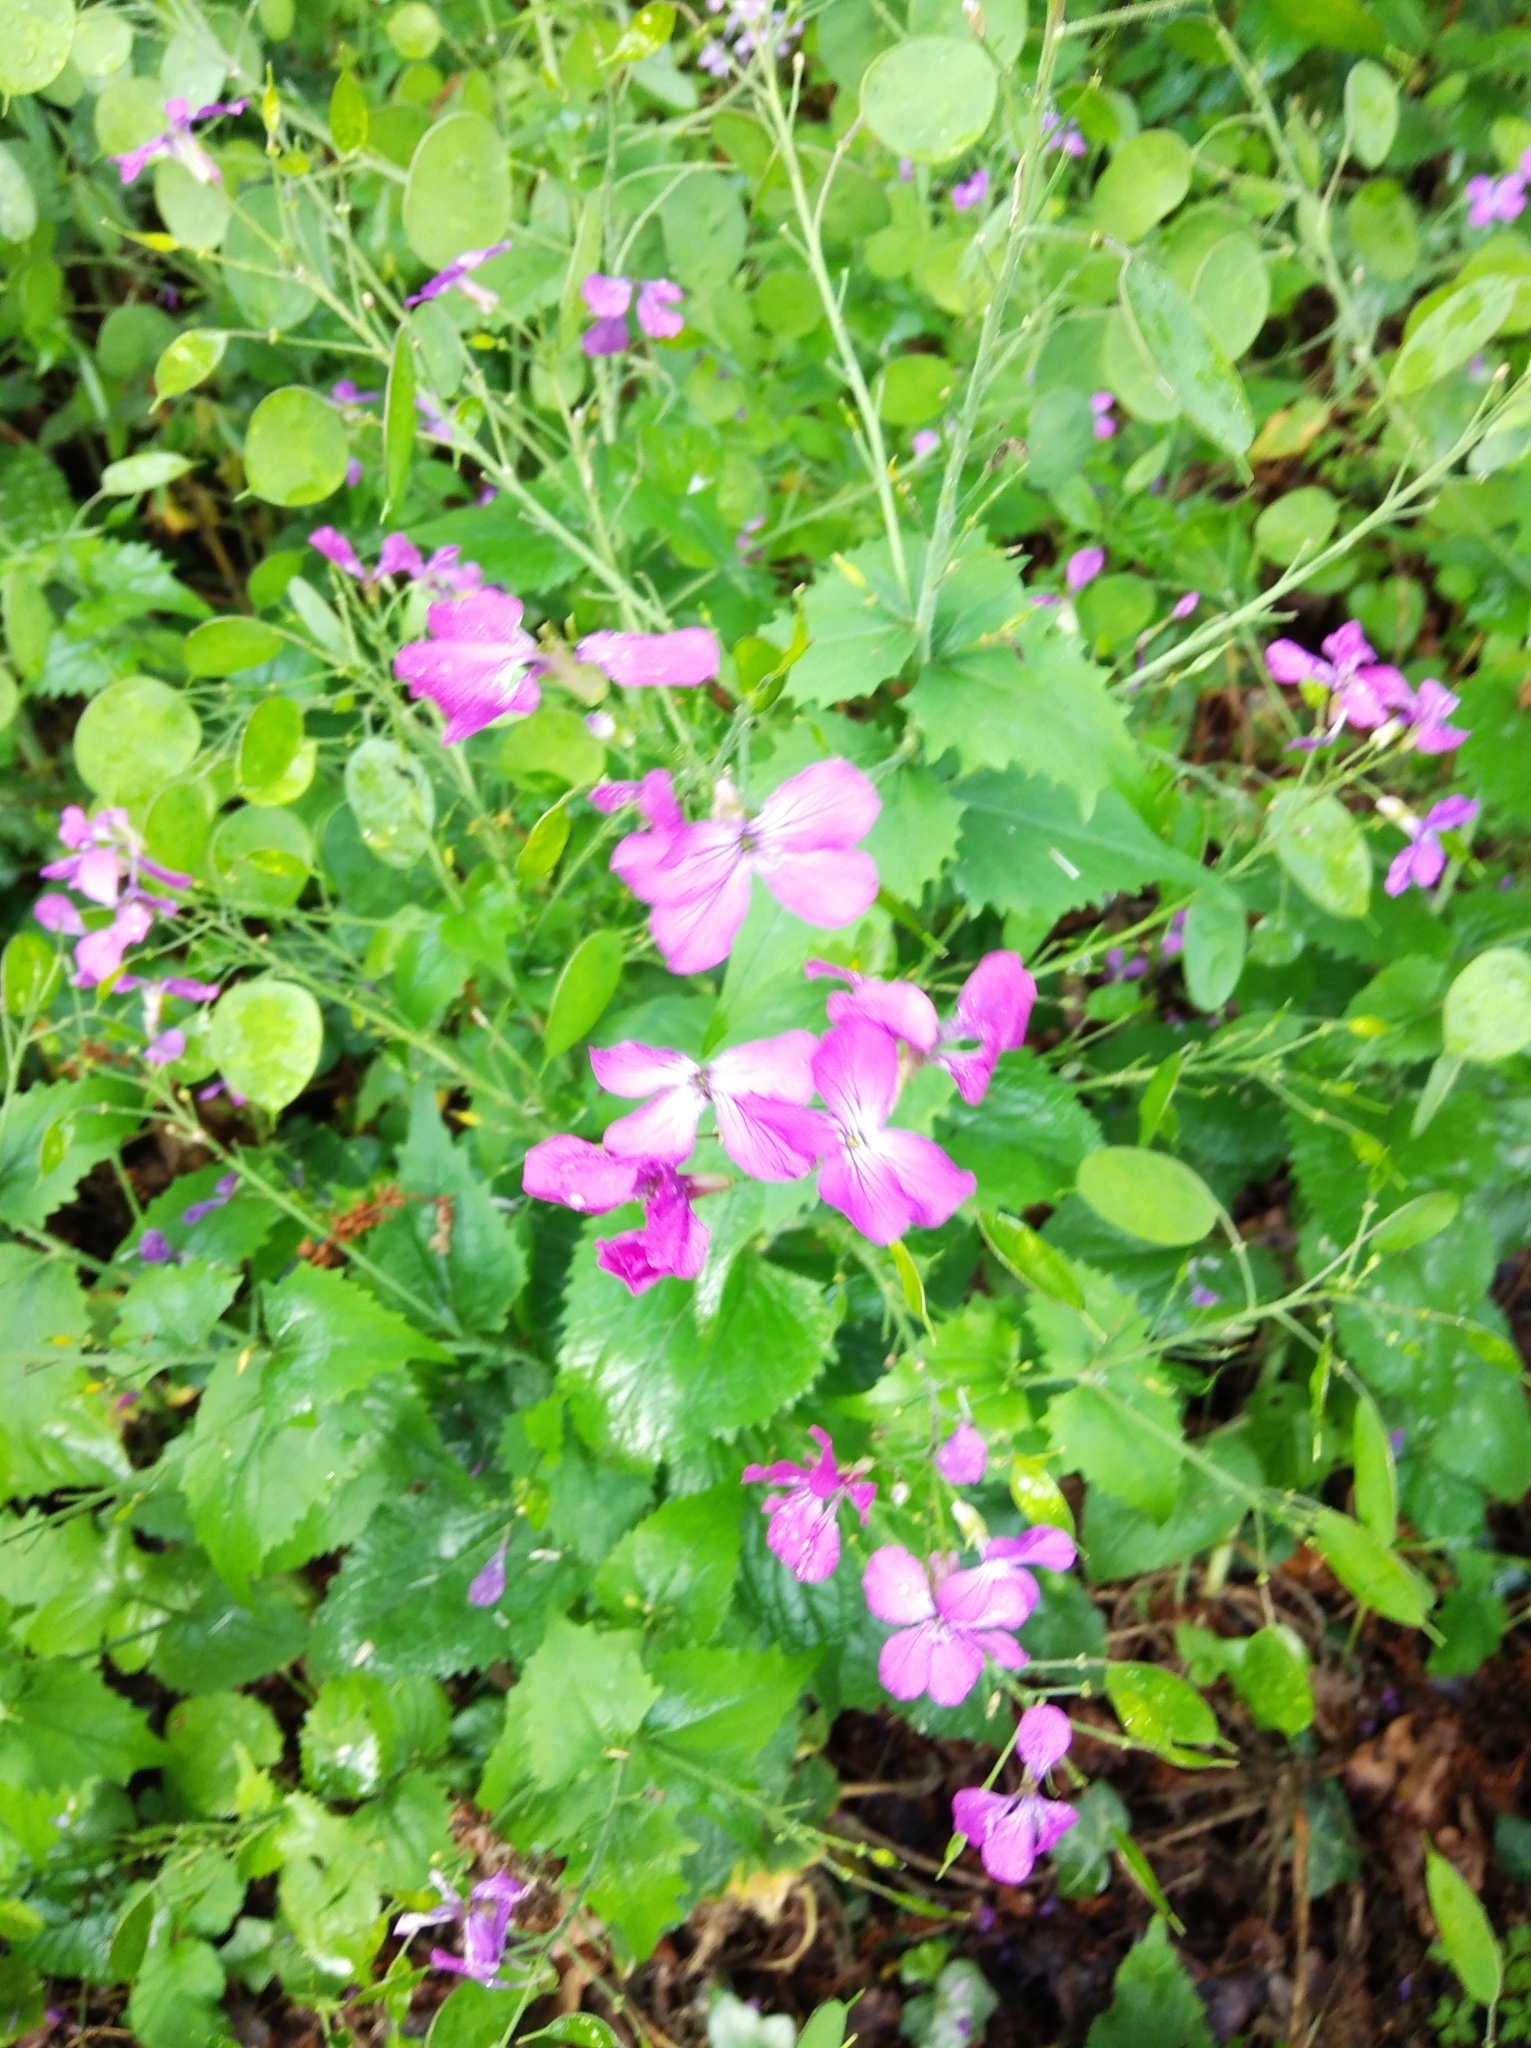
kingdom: Plantae
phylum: Tracheophyta
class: Magnoliopsida
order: Brassicales
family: Brassicaceae
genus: Lunaria
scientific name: Lunaria annua
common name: Honesty
